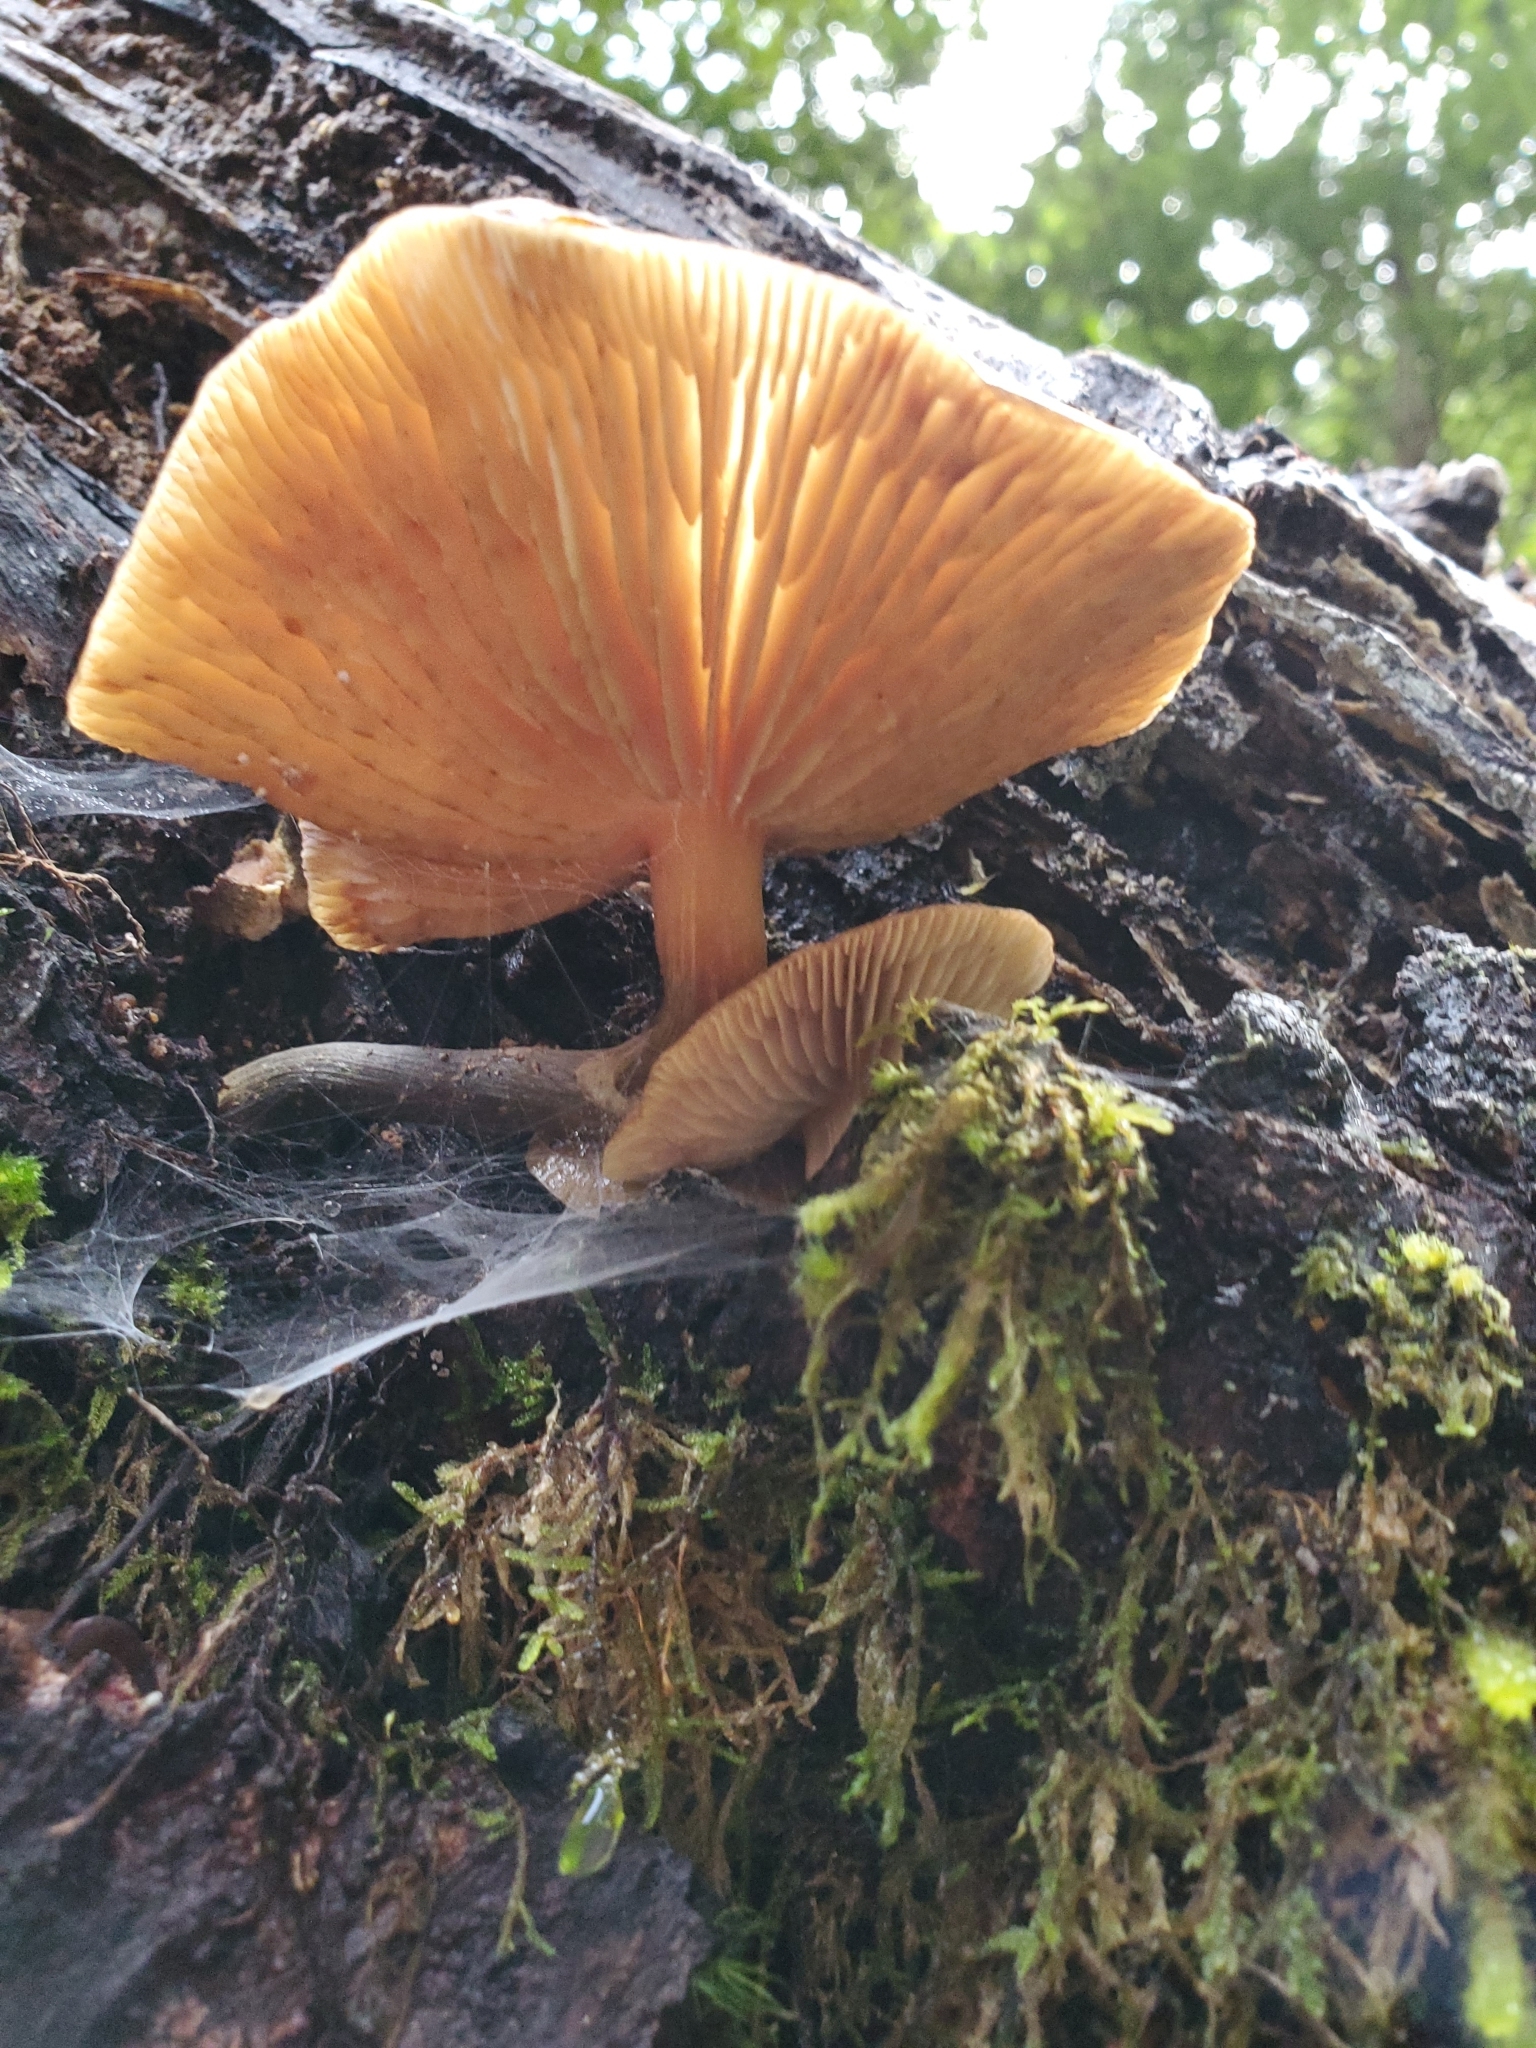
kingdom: Fungi
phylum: Basidiomycota
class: Agaricomycetes
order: Agaricales
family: Physalacriaceae
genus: Flammulina
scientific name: Flammulina velutipes
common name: Velvet shank
